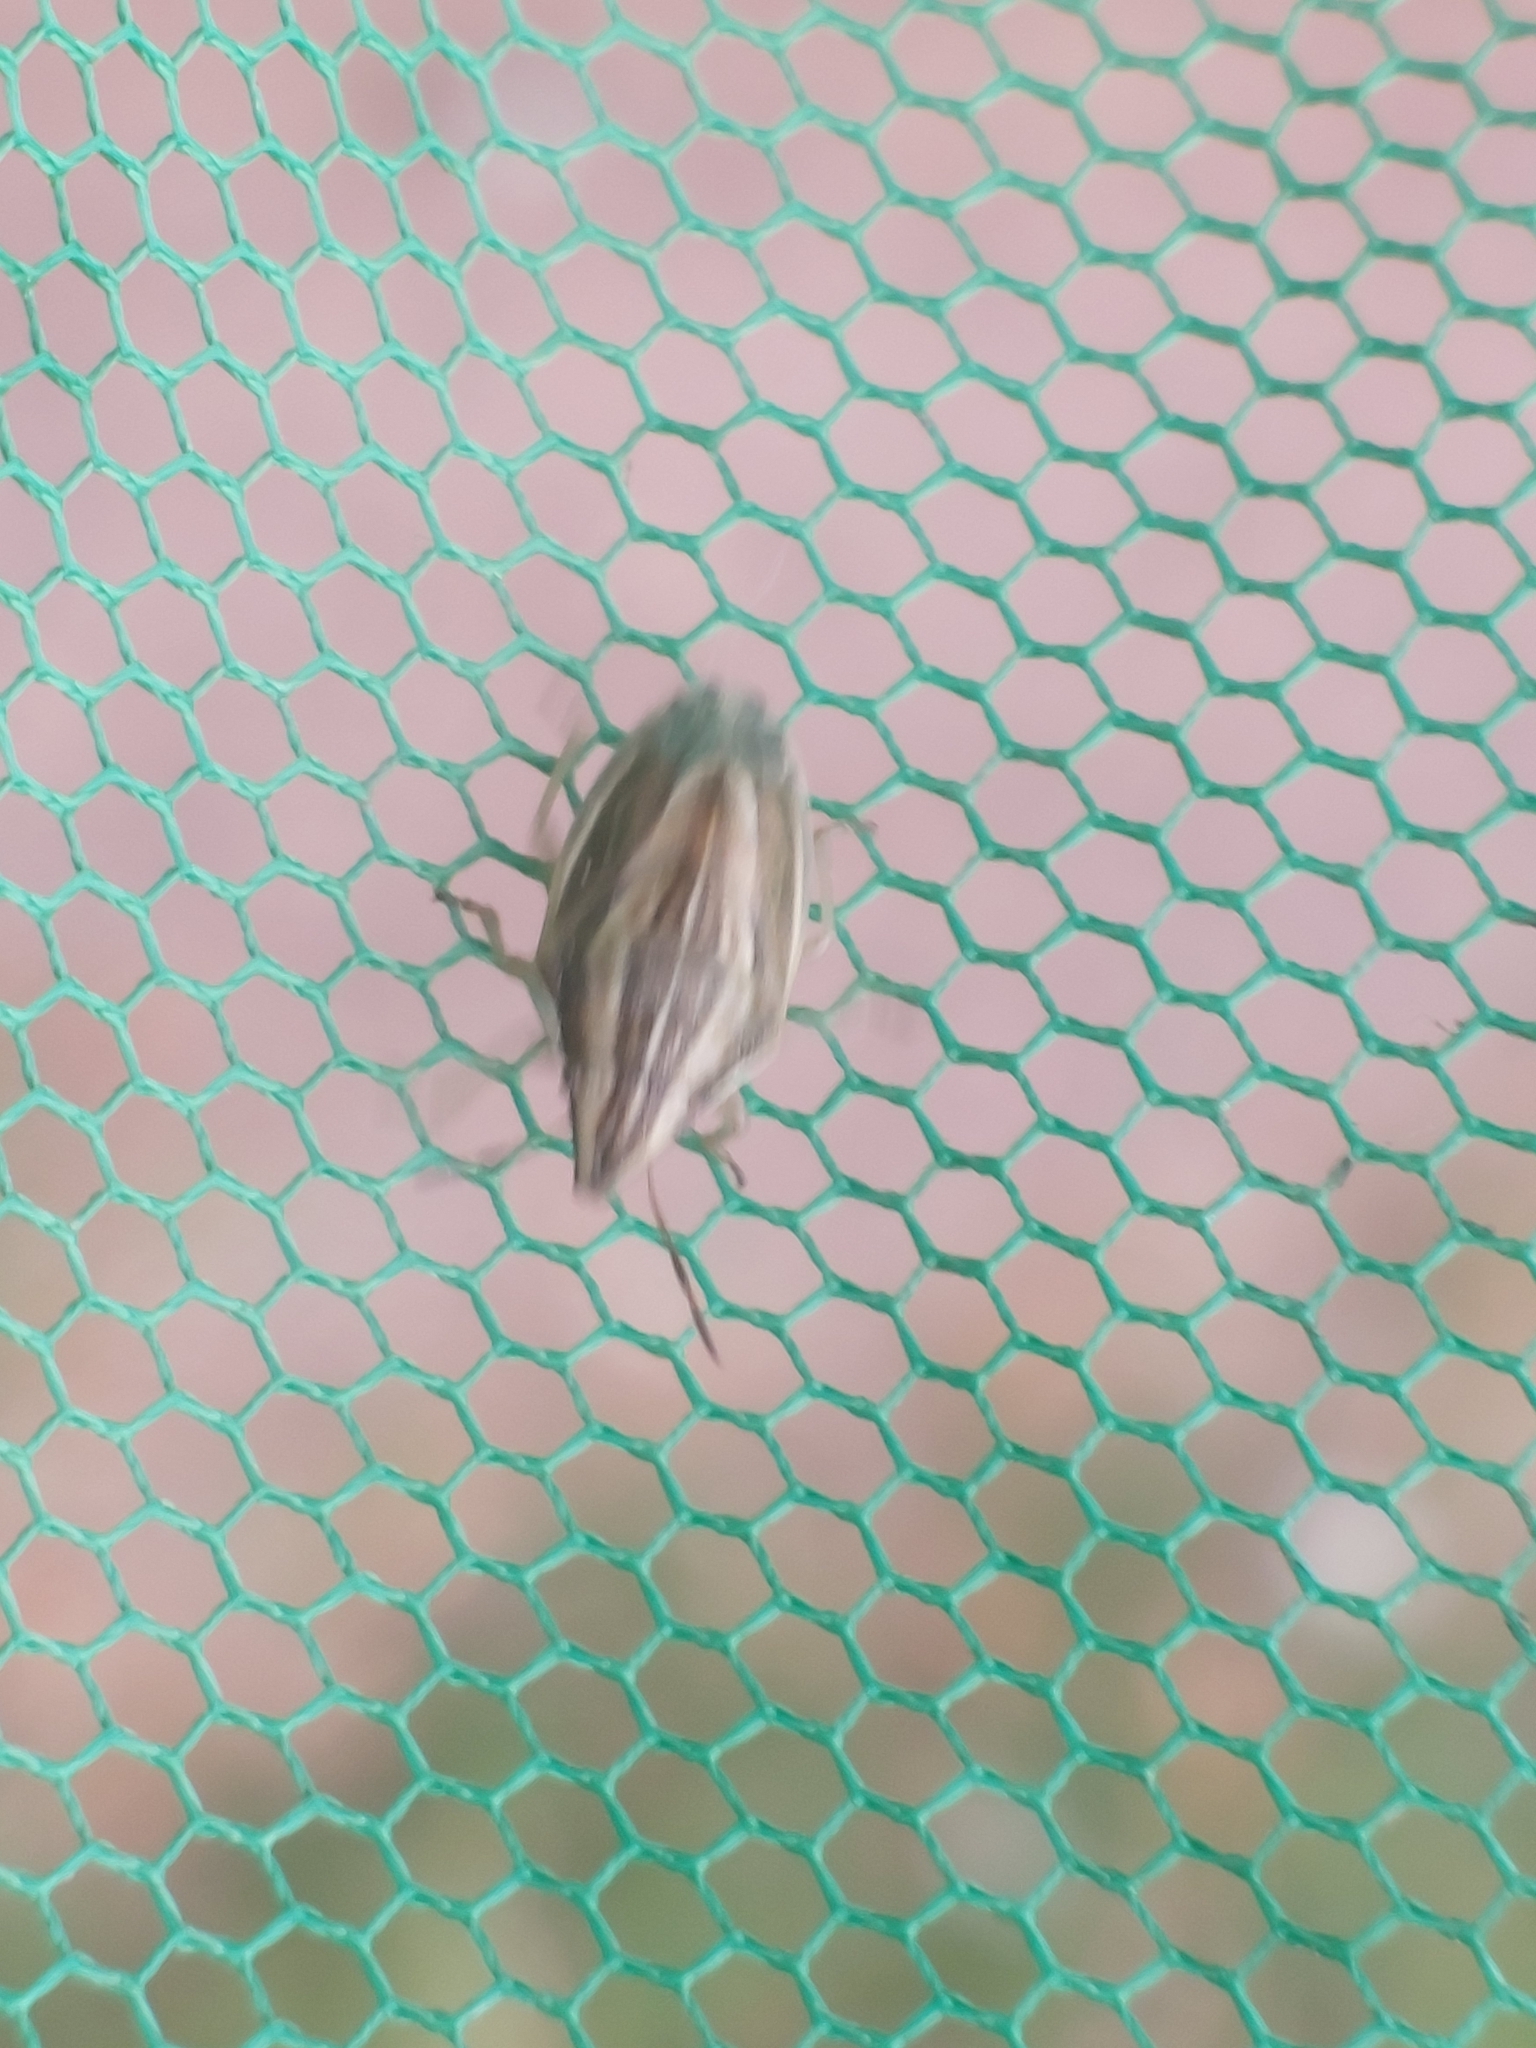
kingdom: Animalia
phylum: Arthropoda
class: Insecta
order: Hemiptera
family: Pentatomidae
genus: Aelia
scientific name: Aelia acuminata
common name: Bishop's mitre
